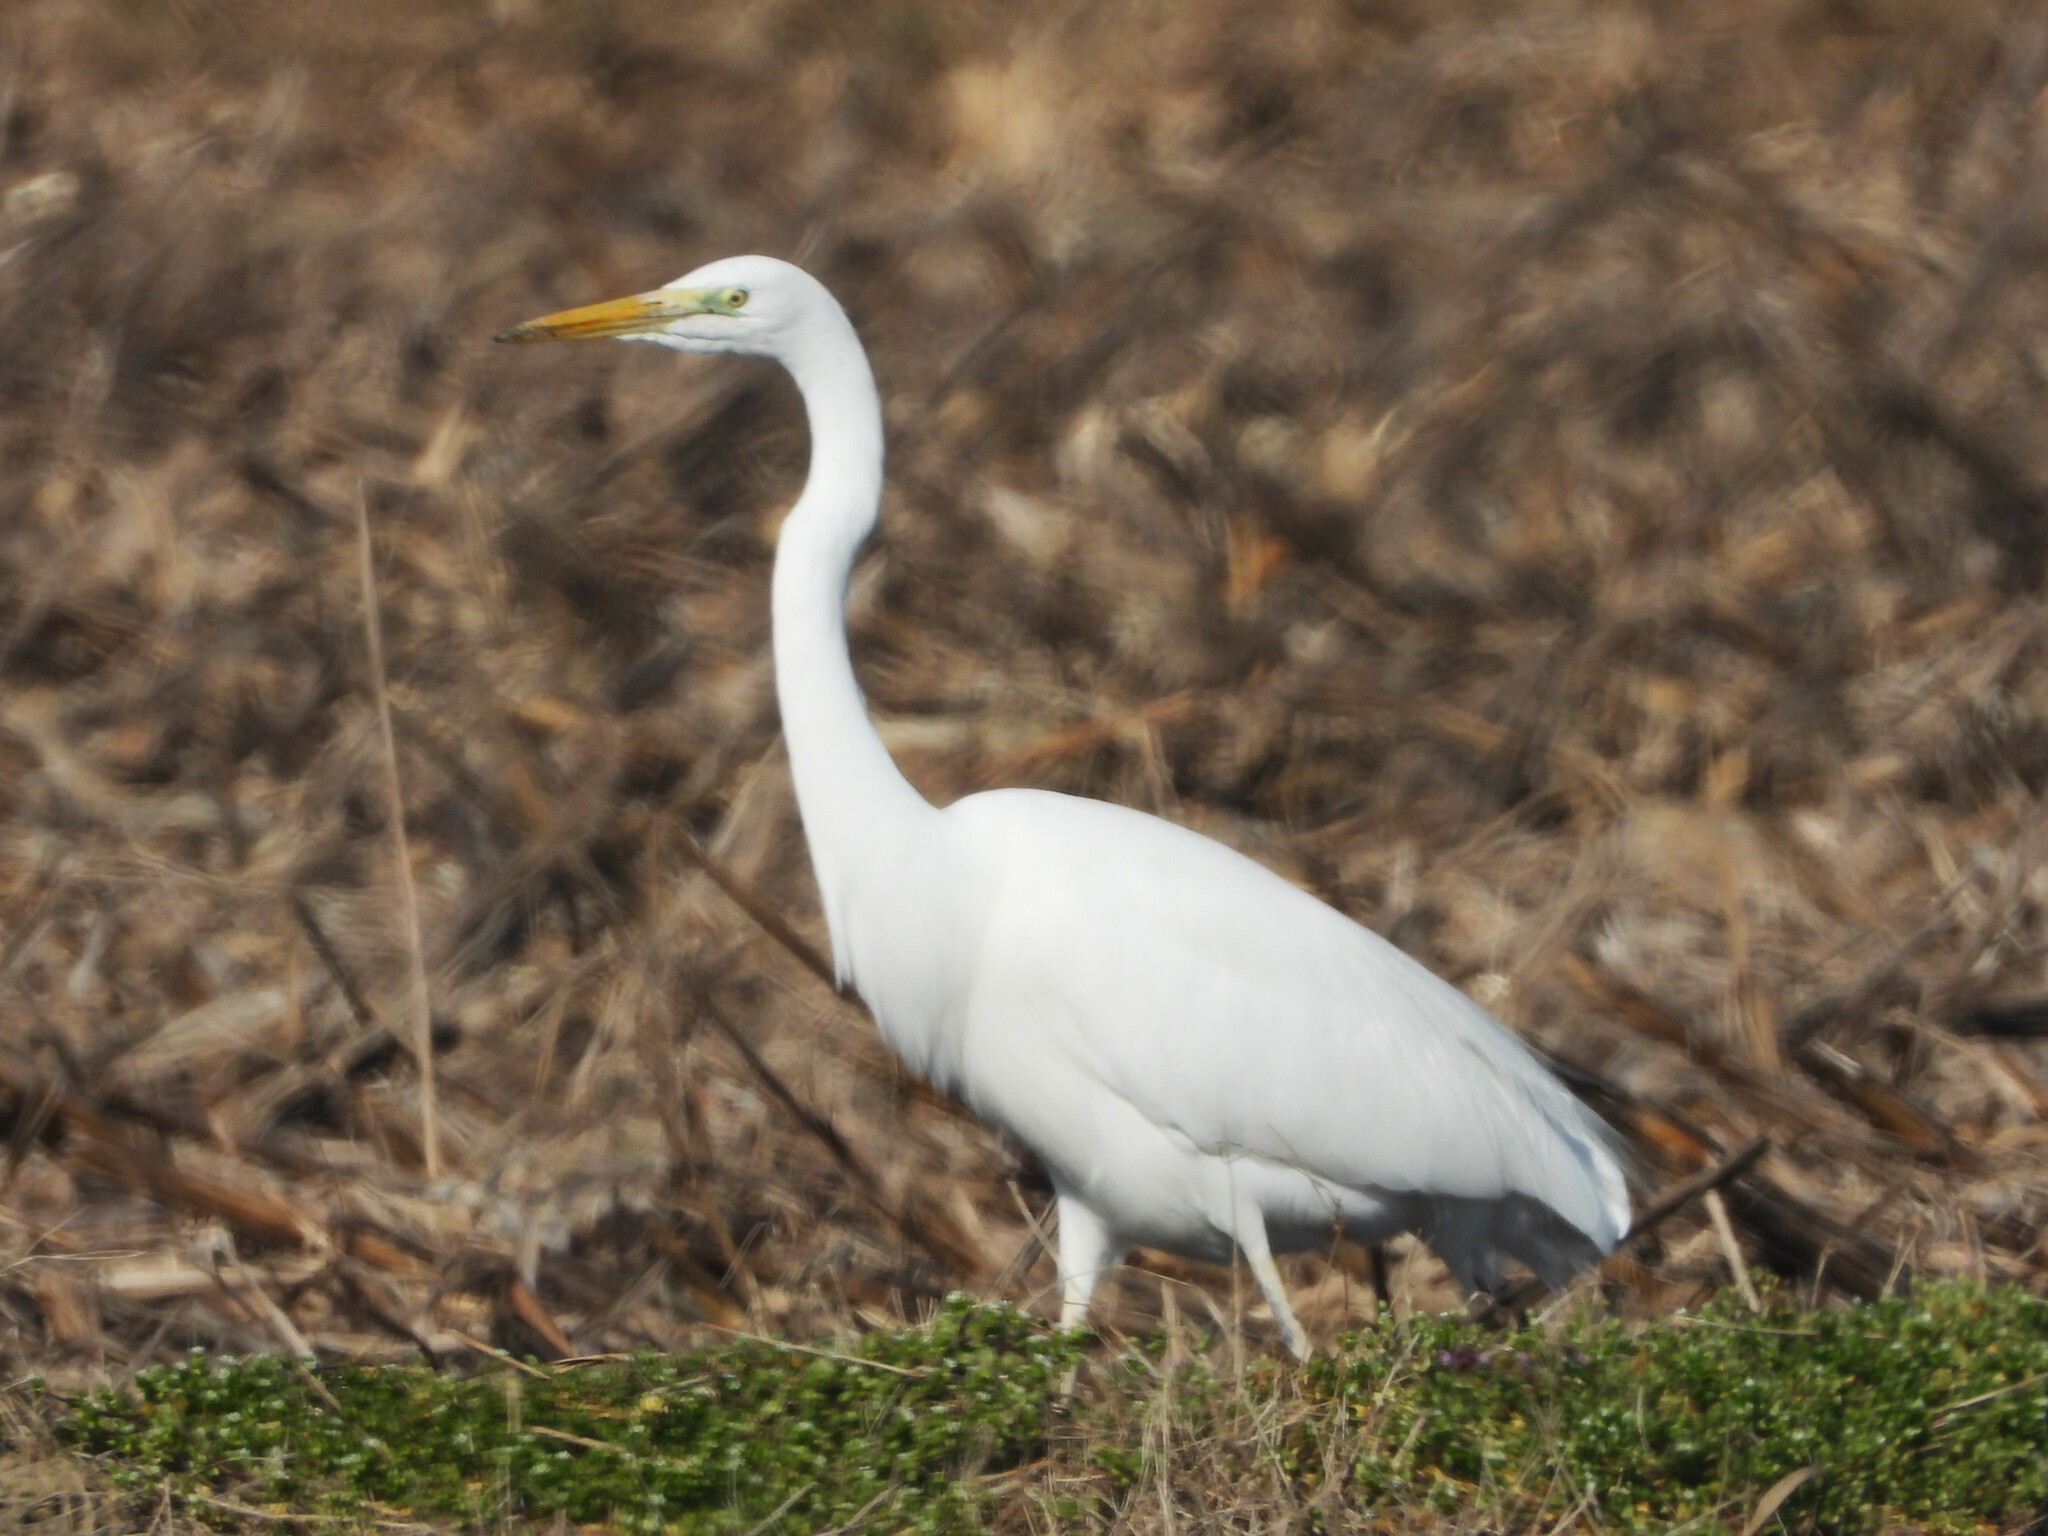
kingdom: Animalia
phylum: Chordata
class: Aves
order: Pelecaniformes
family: Ardeidae
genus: Ardea
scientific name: Ardea alba
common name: Great egret
